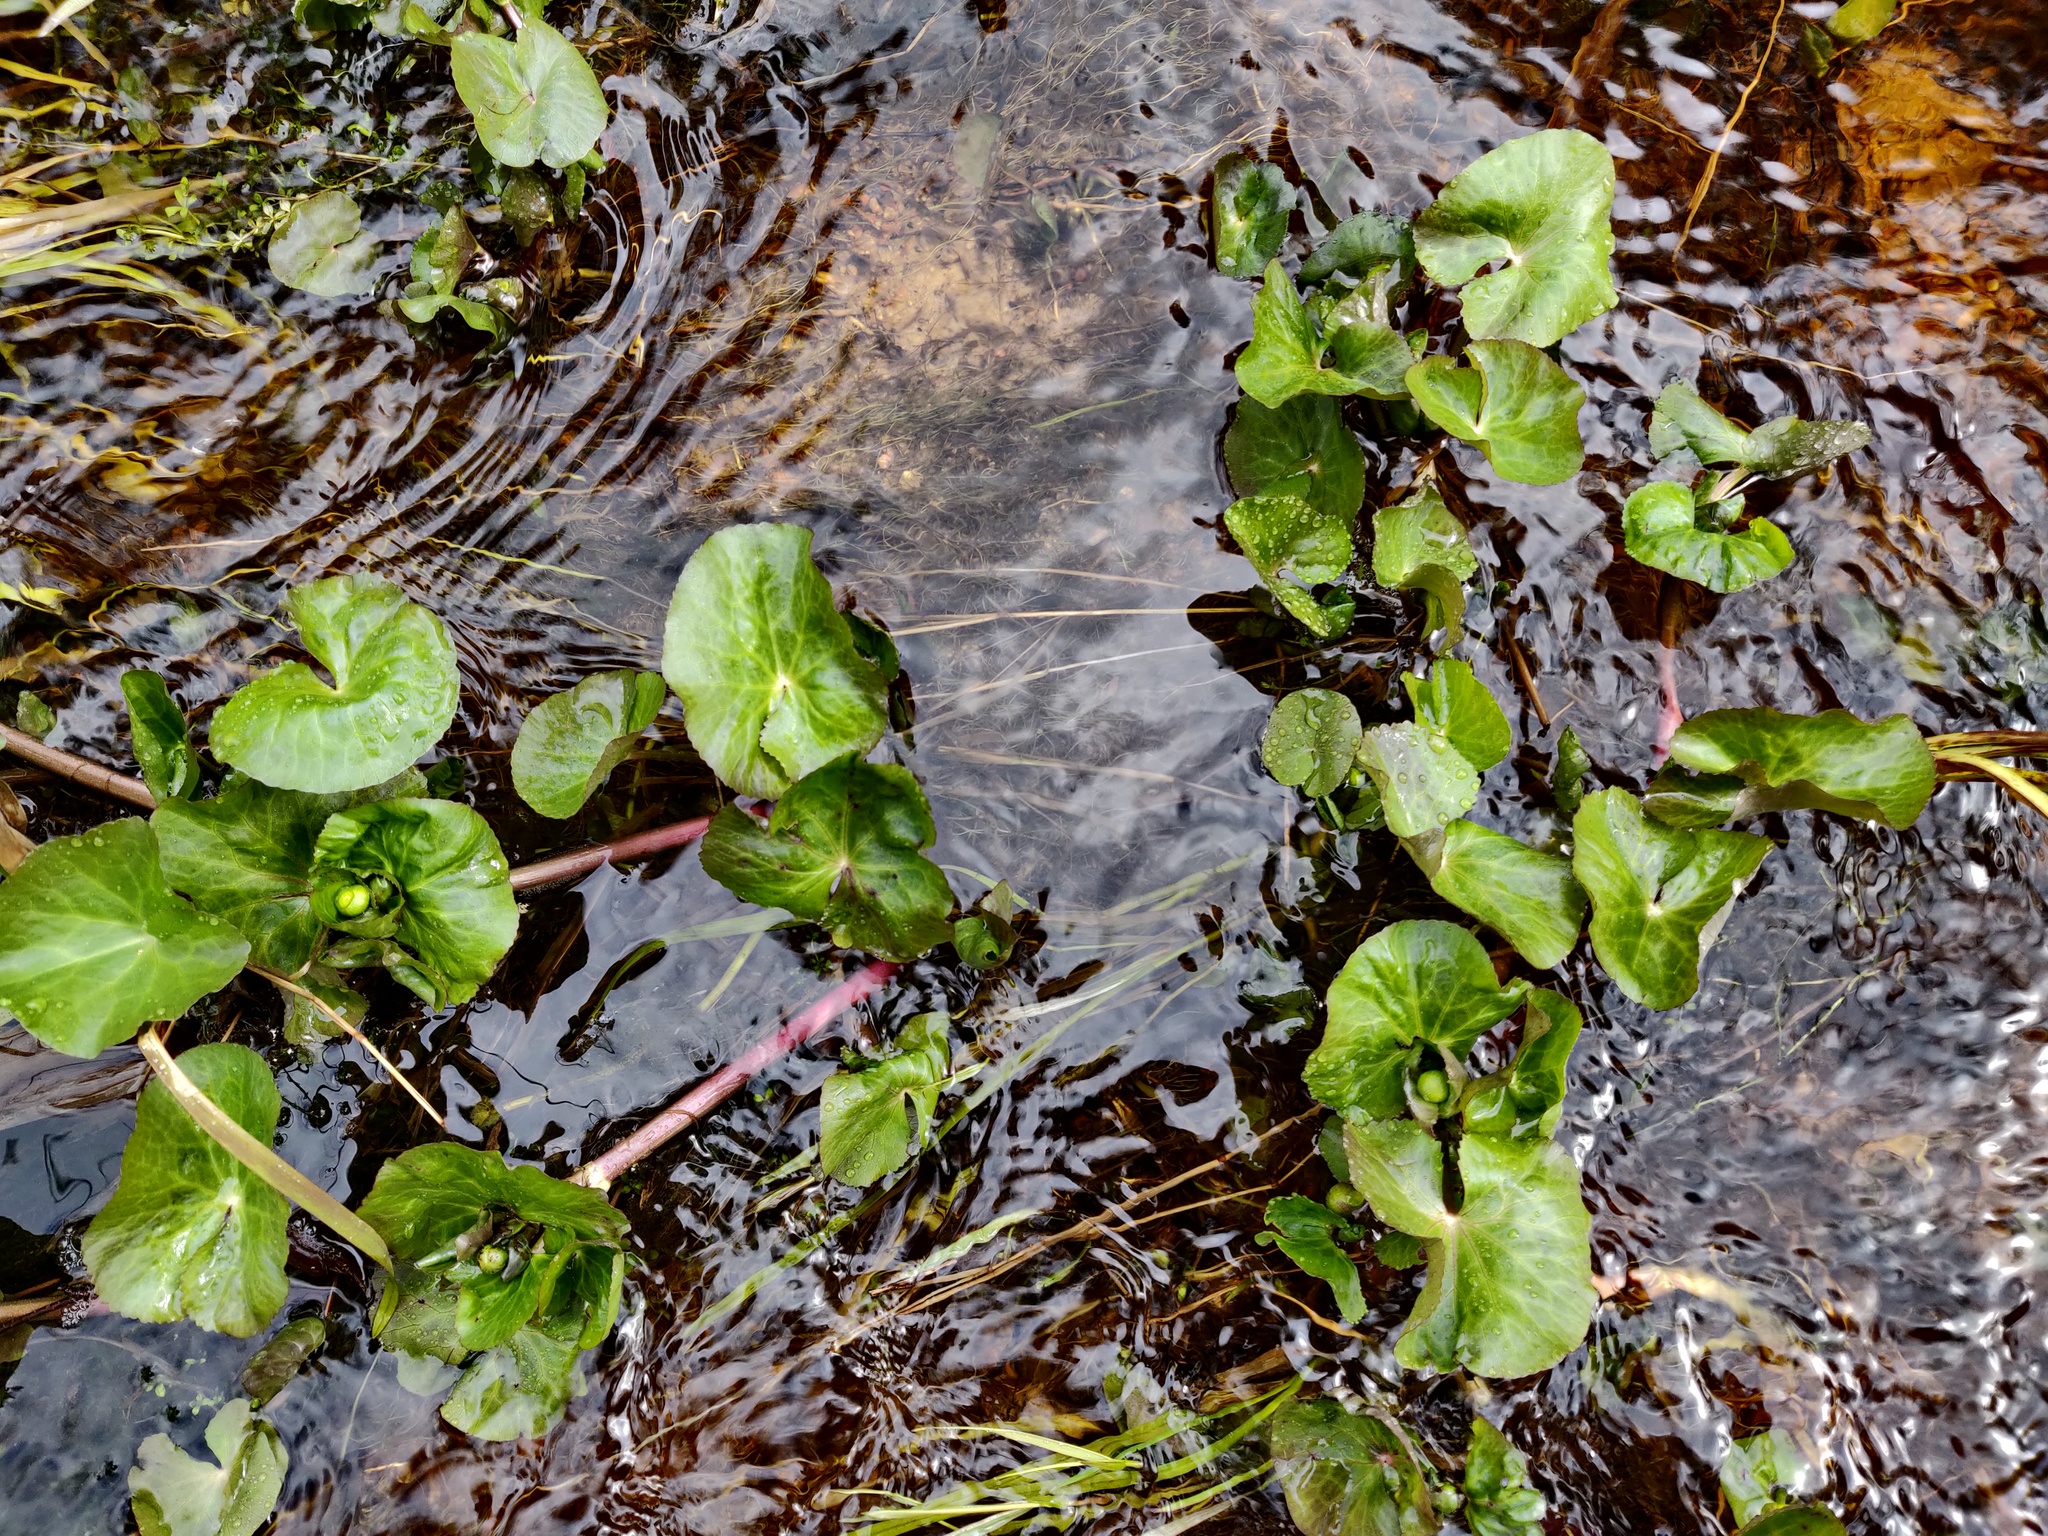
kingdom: Plantae
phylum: Tracheophyta
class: Magnoliopsida
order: Ranunculales
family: Ranunculaceae
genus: Caltha
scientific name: Caltha palustris
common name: Marsh marigold
